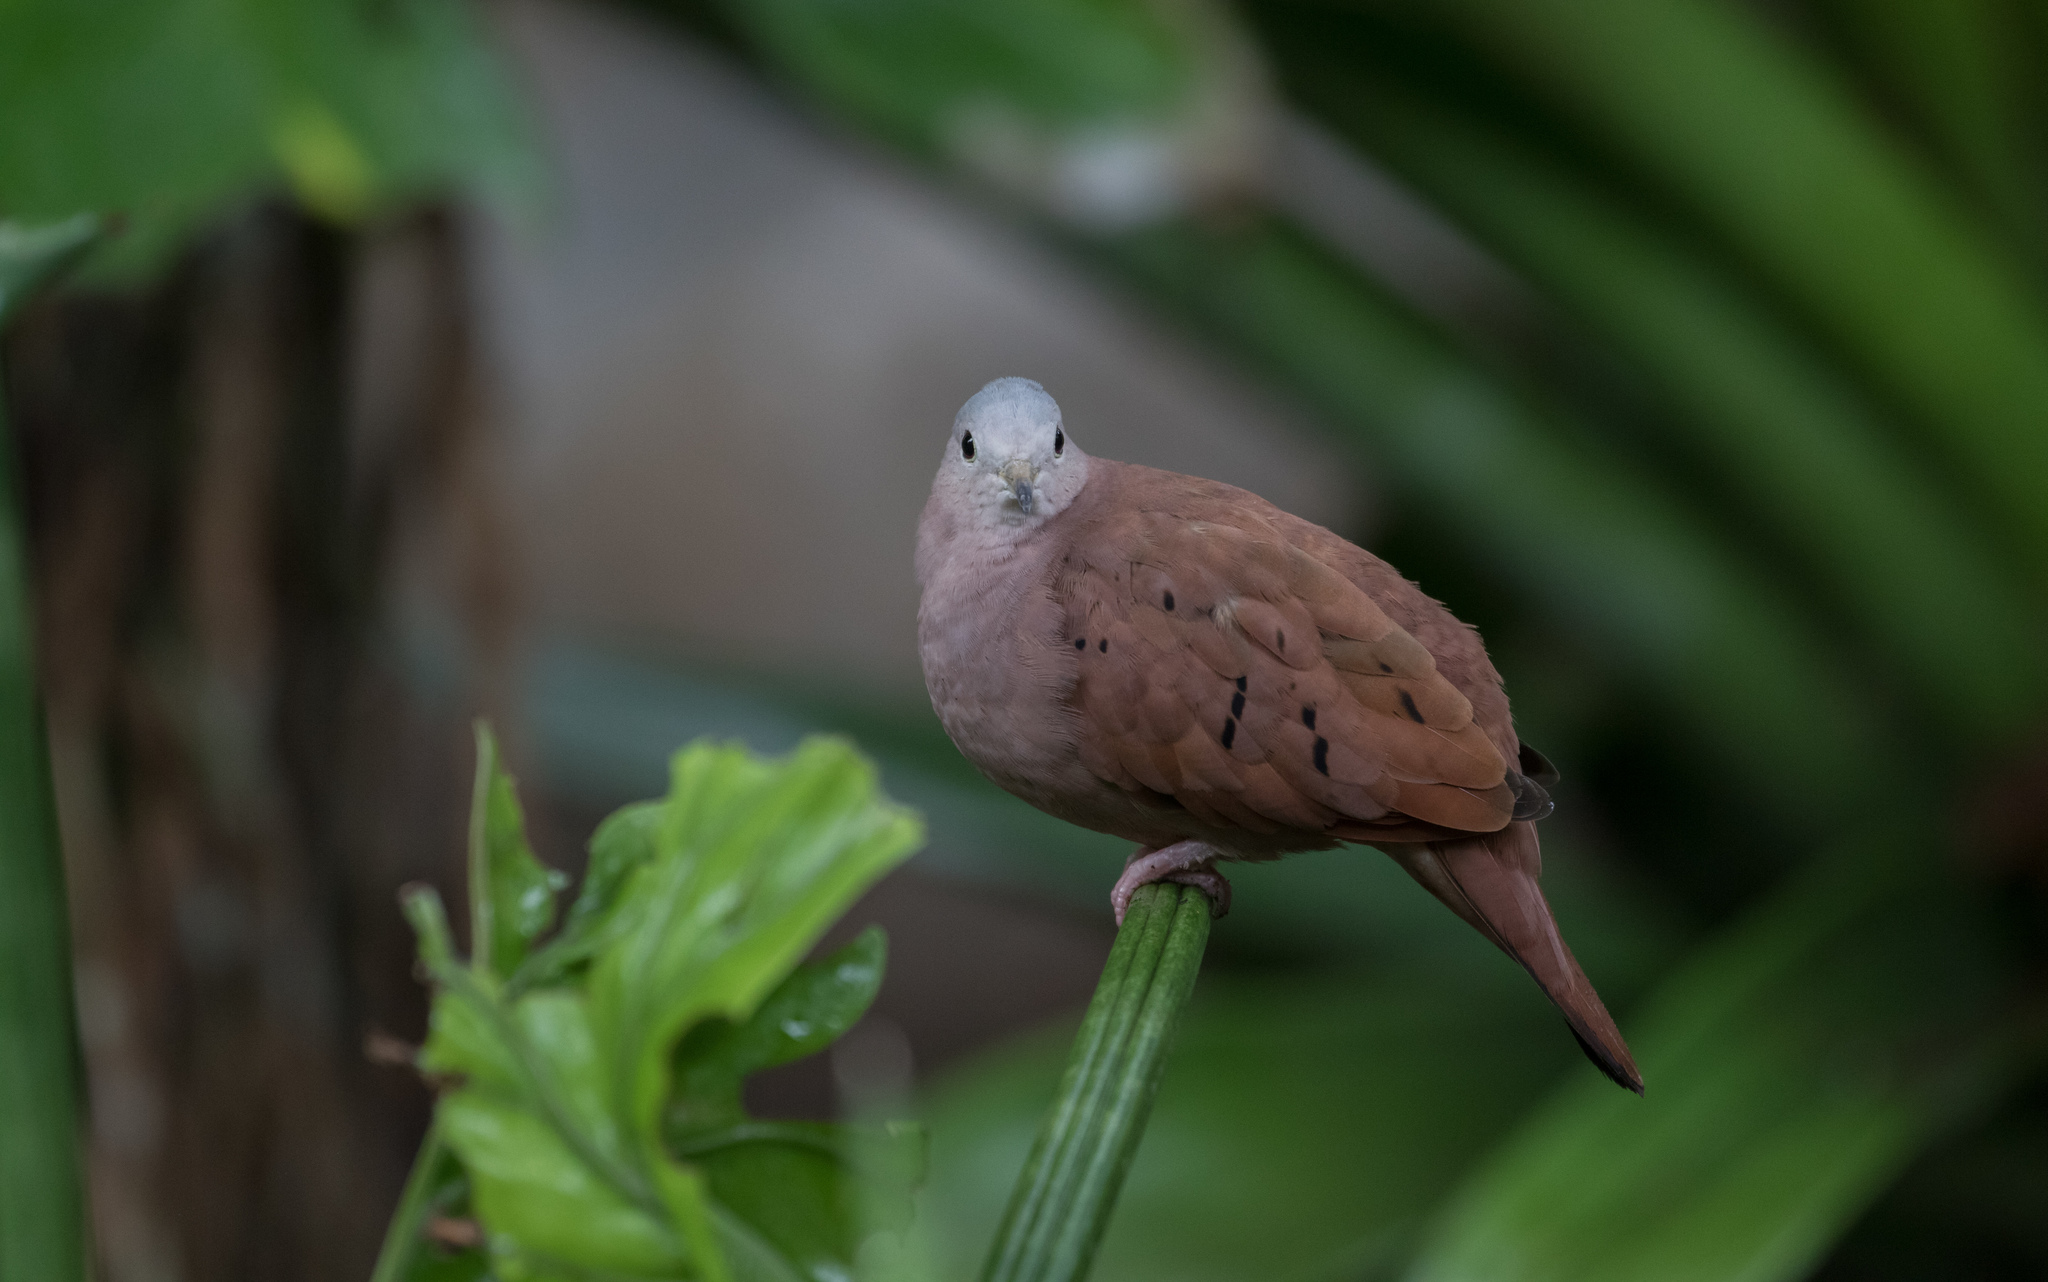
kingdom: Animalia
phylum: Chordata
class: Aves
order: Columbiformes
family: Columbidae
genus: Columbina
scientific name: Columbina talpacoti
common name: Ruddy ground dove
